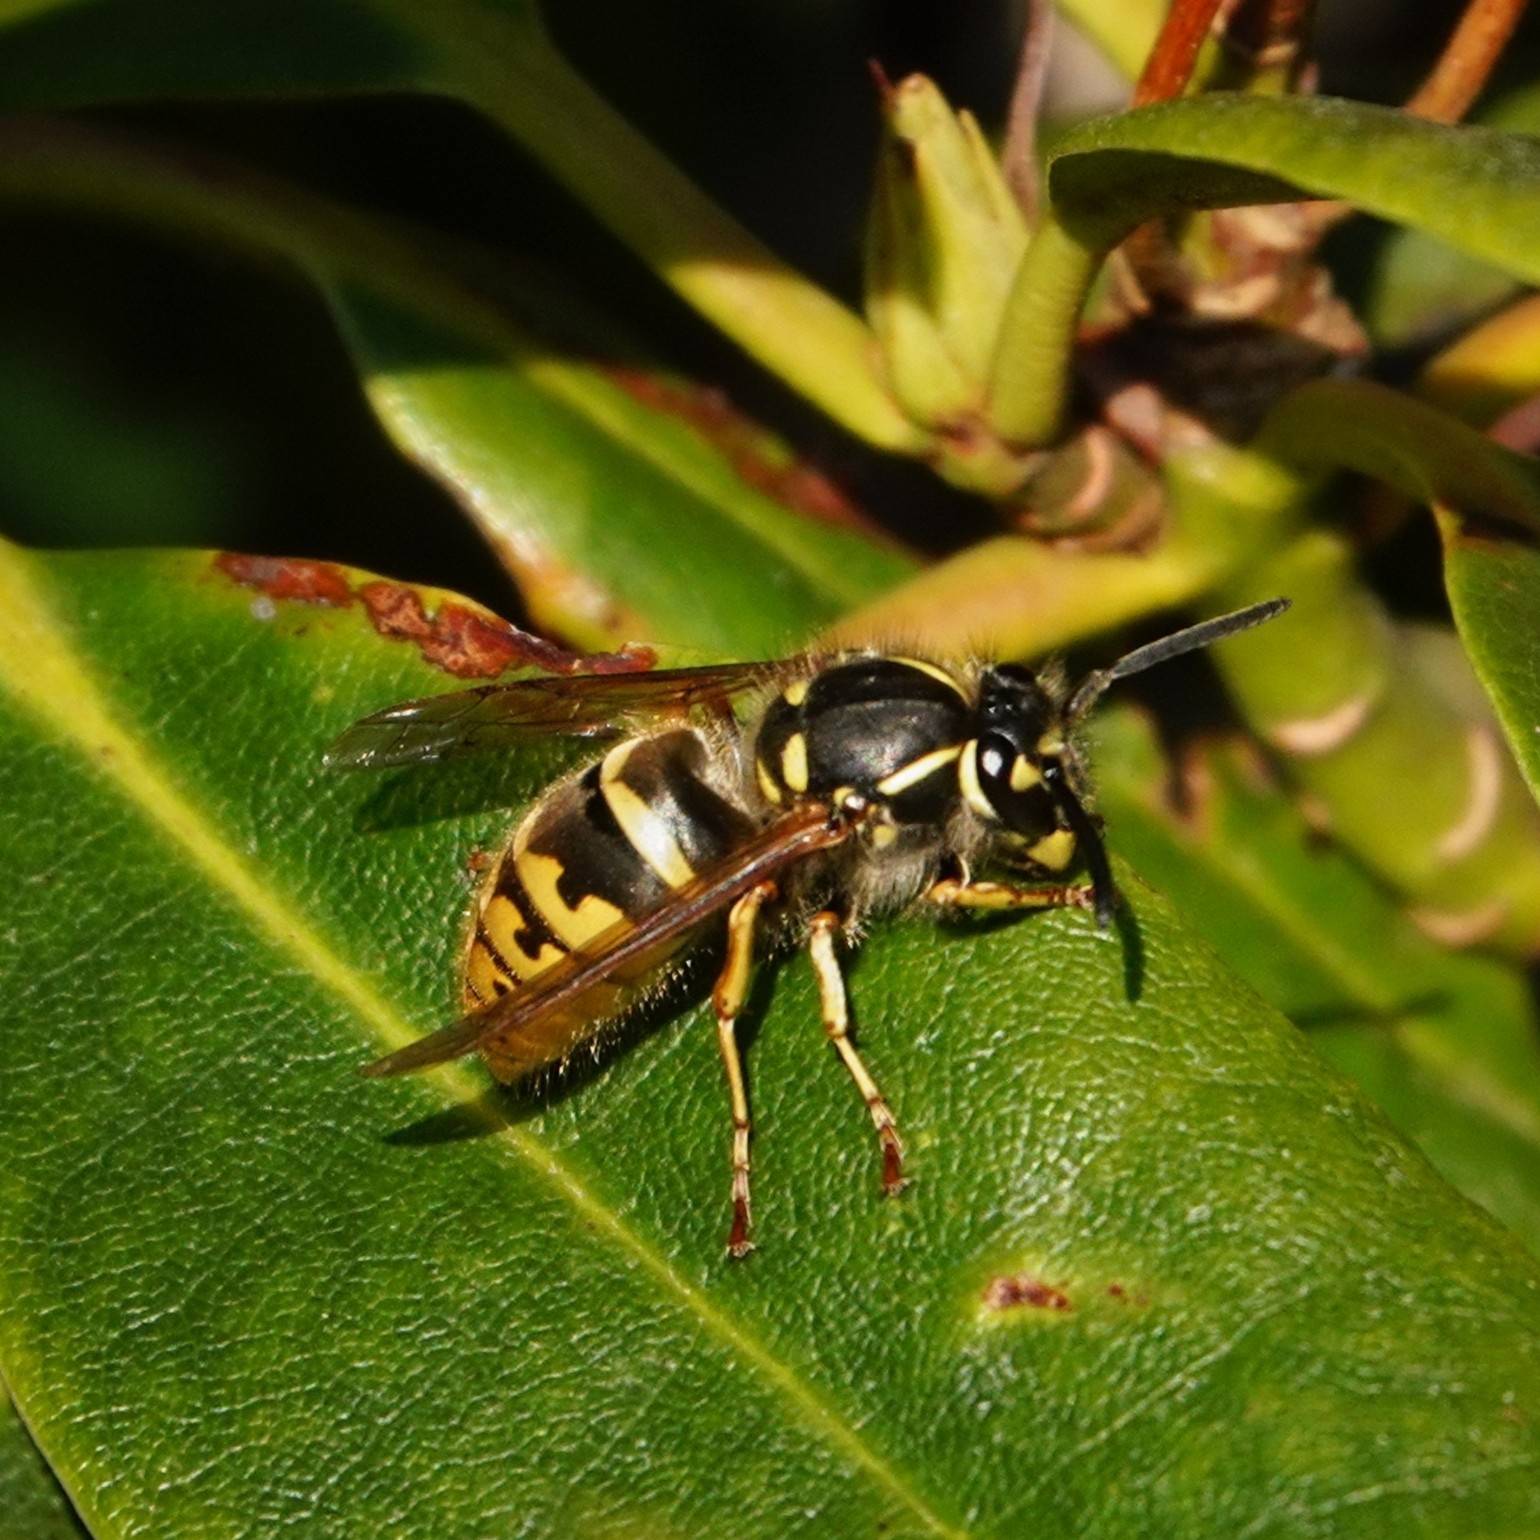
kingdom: Animalia
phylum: Arthropoda
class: Insecta
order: Hymenoptera
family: Vespidae
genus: Vespula
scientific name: Vespula vulgaris
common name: Common wasp
